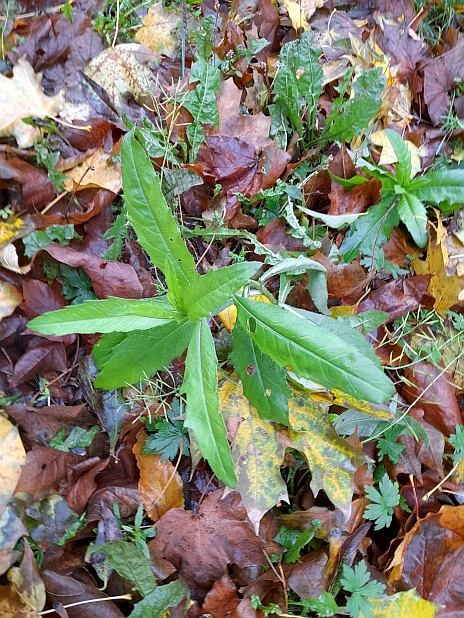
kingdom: Plantae
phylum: Tracheophyta
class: Magnoliopsida
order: Asterales
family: Asteraceae
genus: Cirsium
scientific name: Cirsium arvense
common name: Creeping thistle
